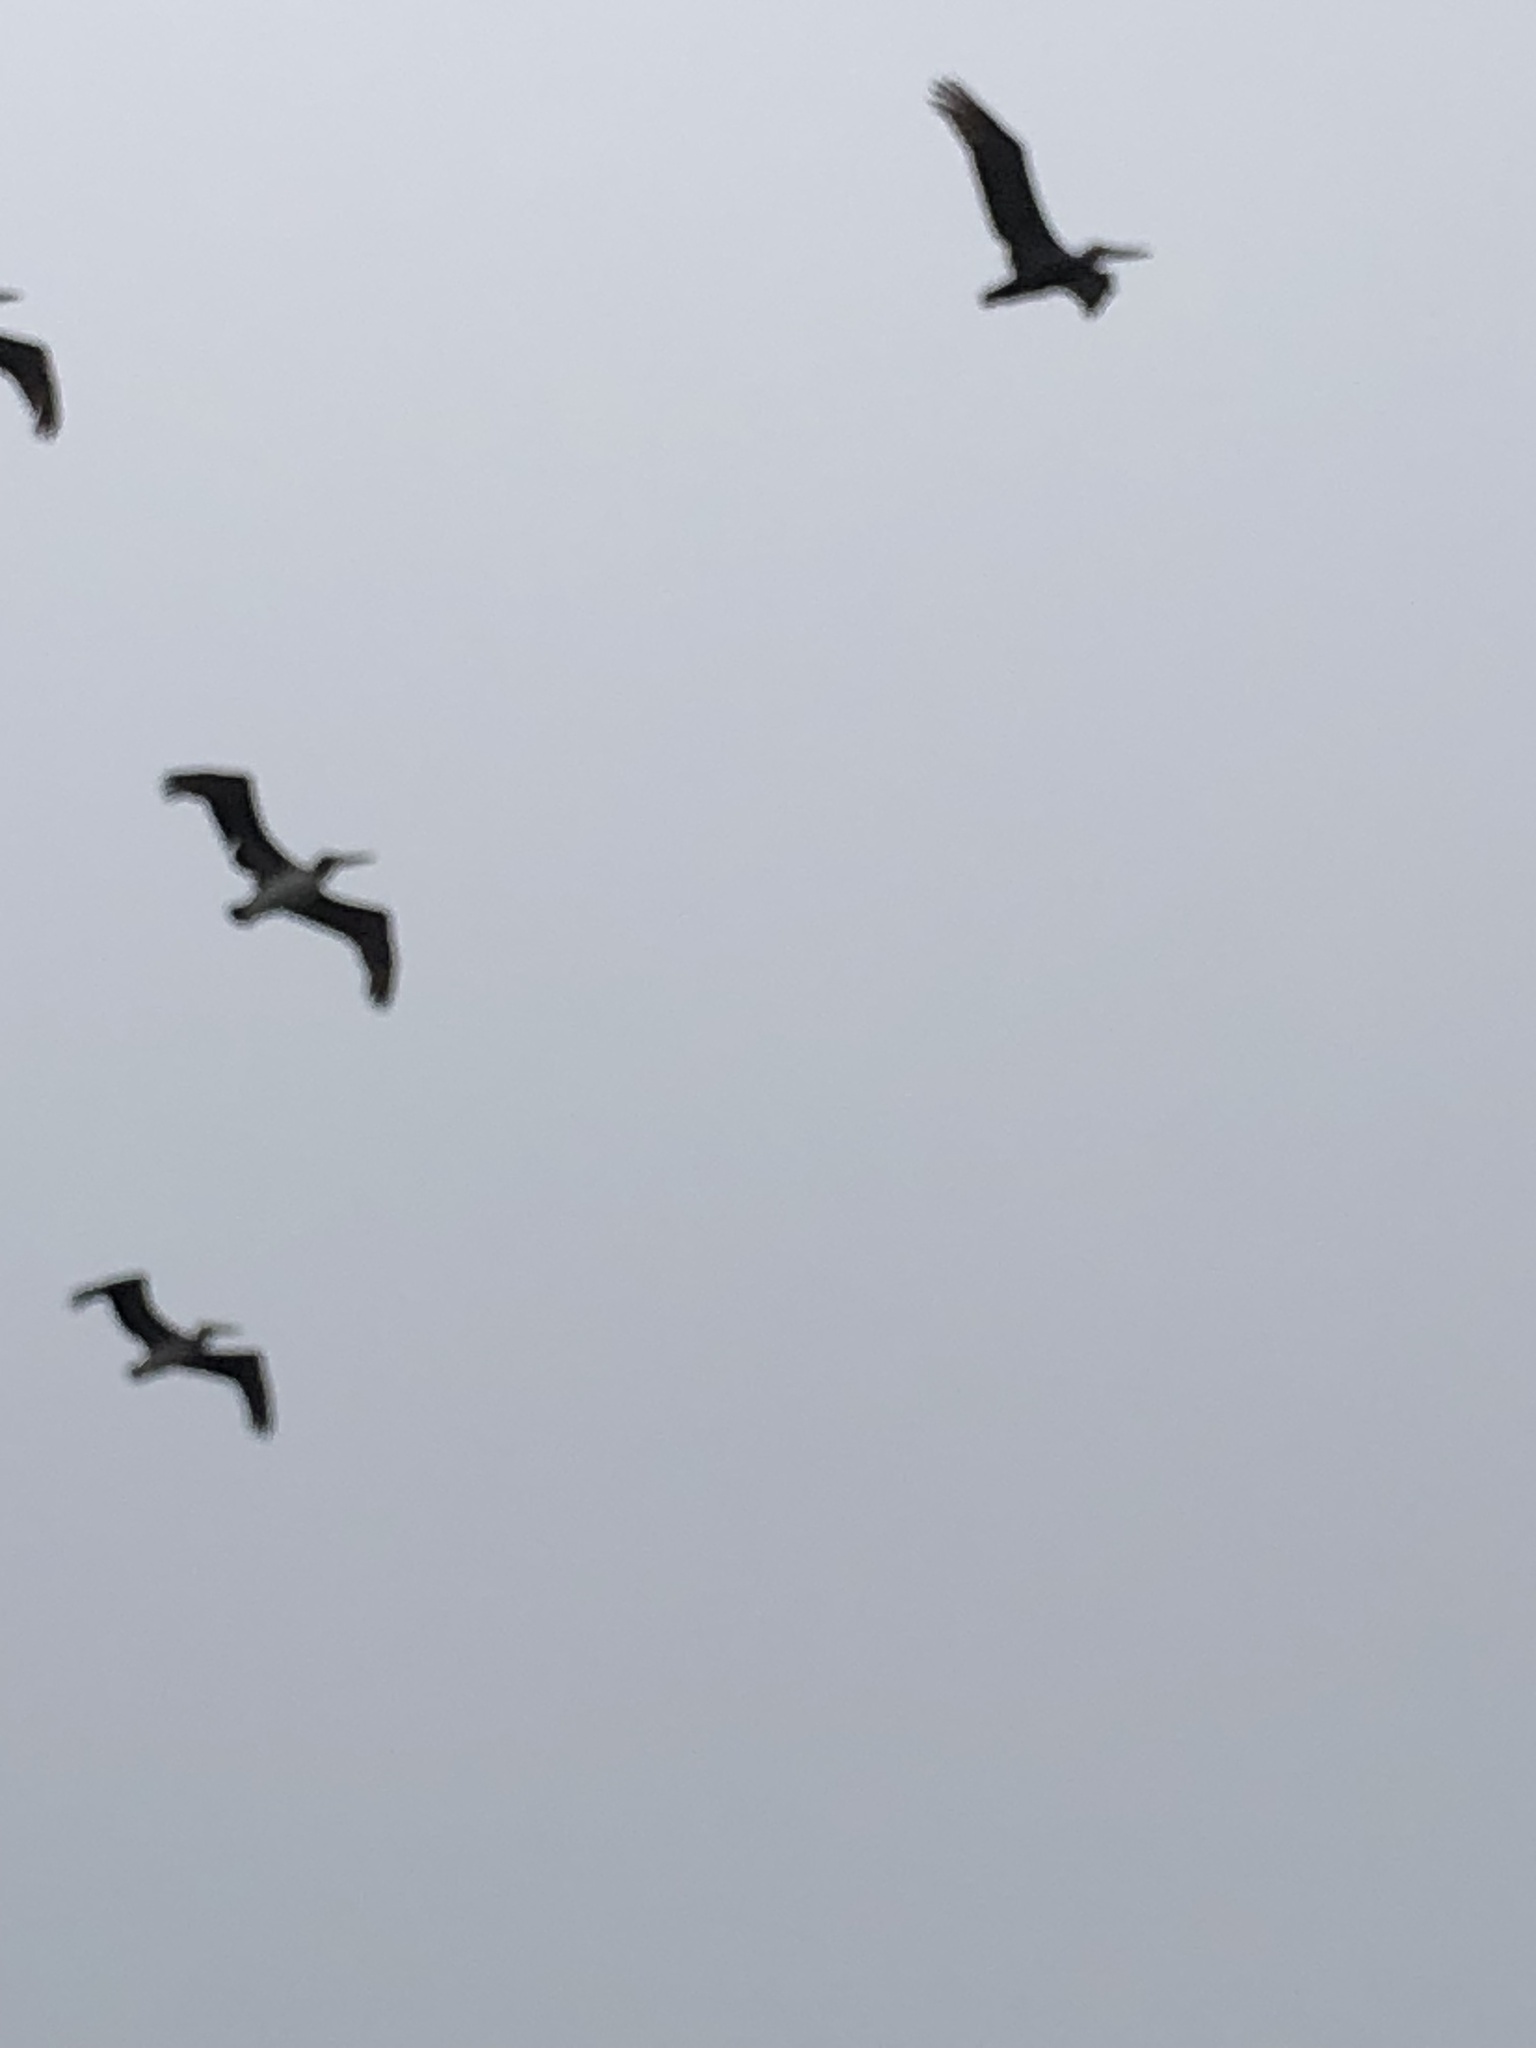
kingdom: Animalia
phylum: Chordata
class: Aves
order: Pelecaniformes
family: Pelecanidae
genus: Pelecanus
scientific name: Pelecanus occidentalis
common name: Brown pelican
